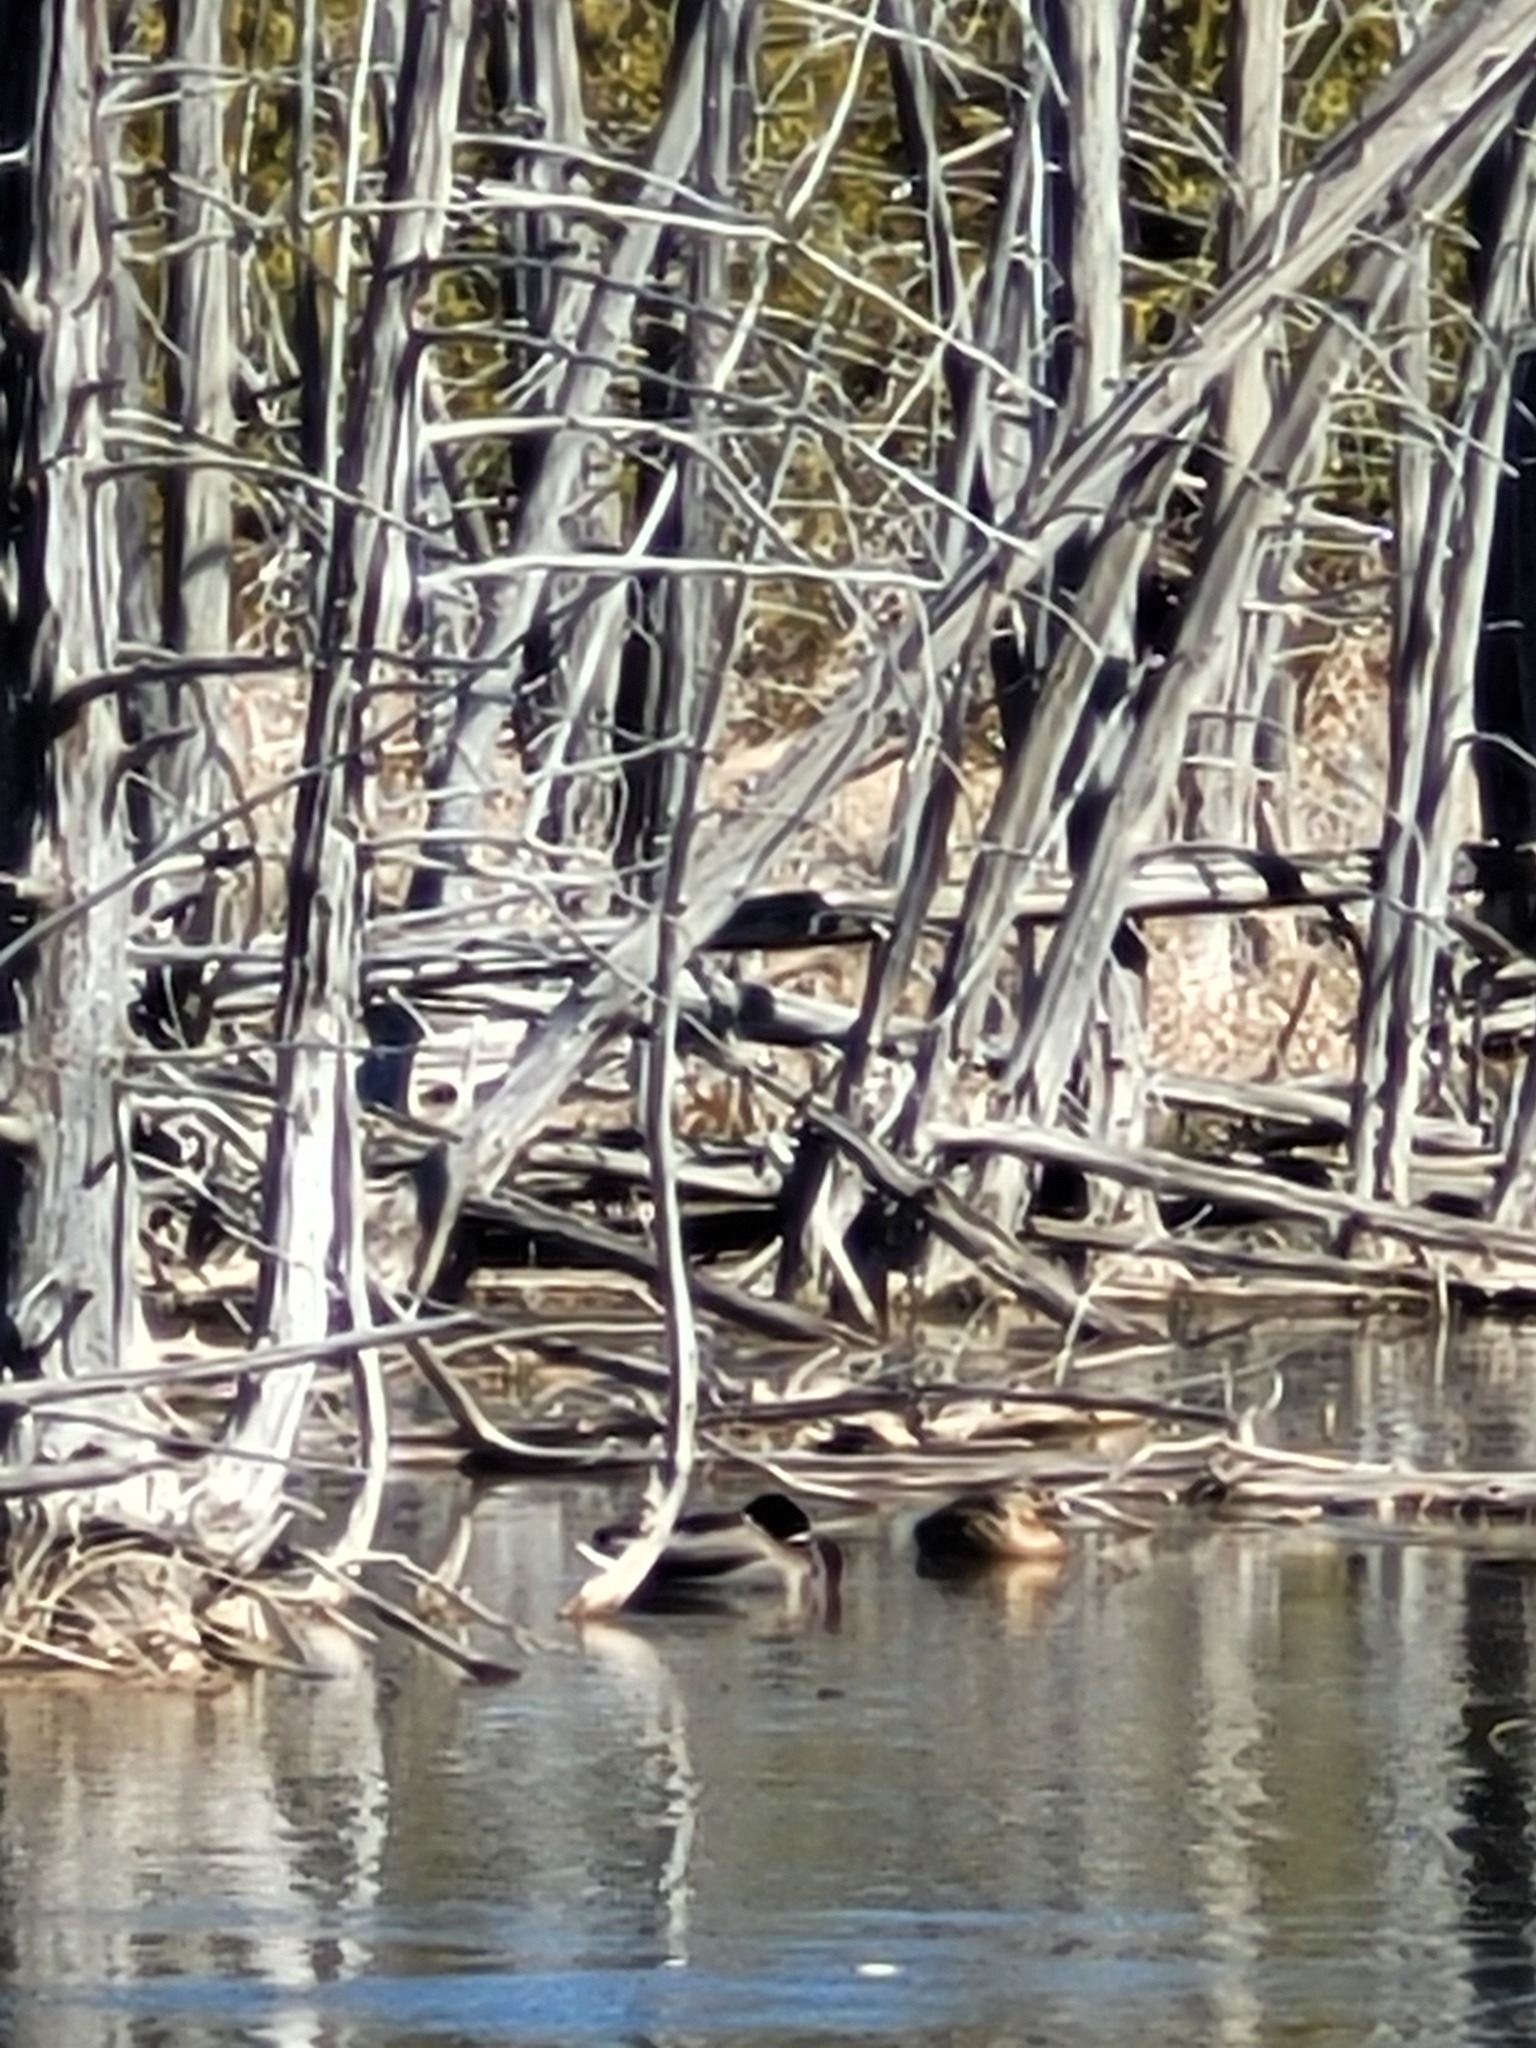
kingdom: Animalia
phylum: Chordata
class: Aves
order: Anseriformes
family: Anatidae
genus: Anas
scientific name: Anas platyrhynchos
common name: Mallard
